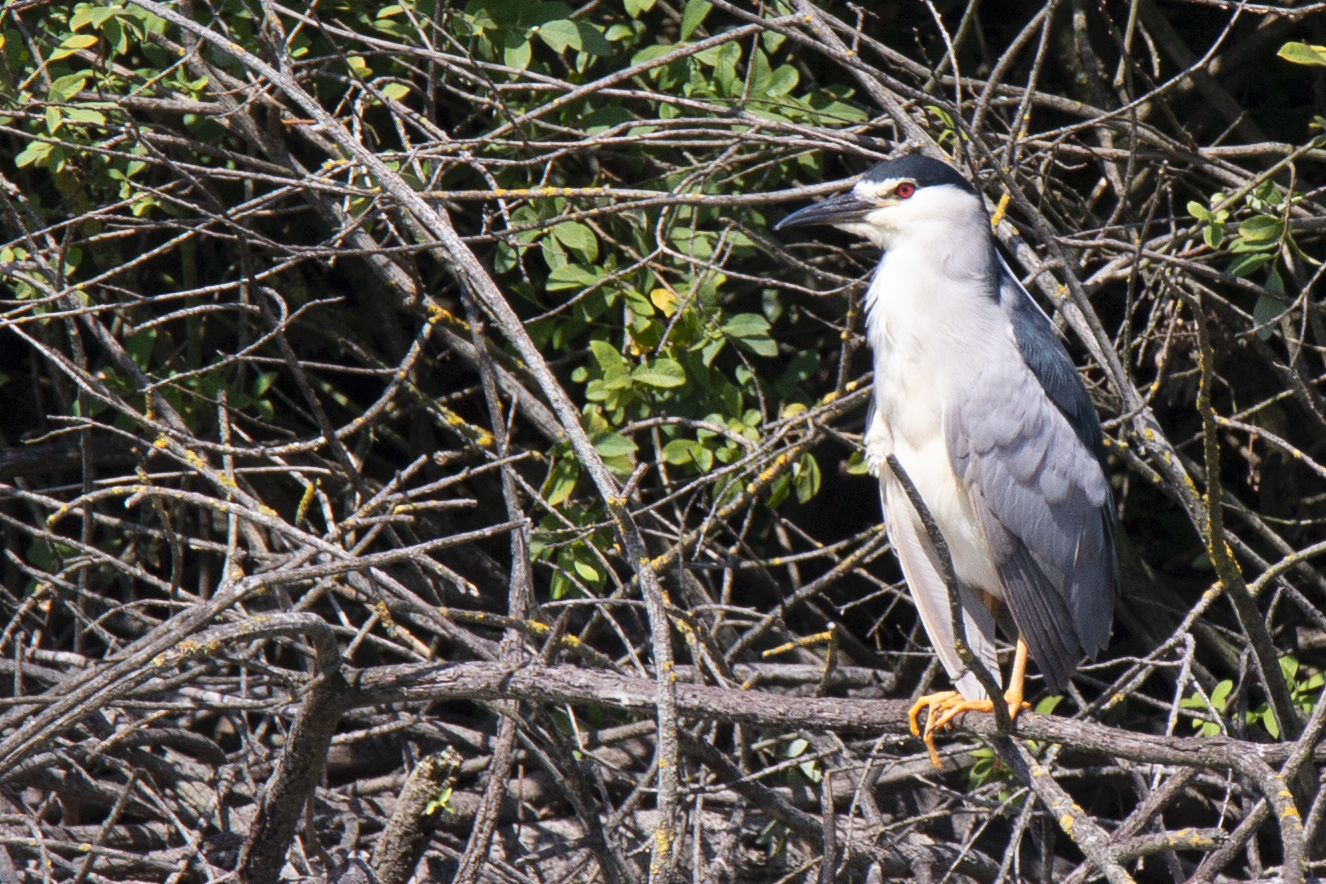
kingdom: Animalia
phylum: Chordata
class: Aves
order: Pelecaniformes
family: Ardeidae
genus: Nycticorax
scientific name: Nycticorax nycticorax
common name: Black-crowned night heron
